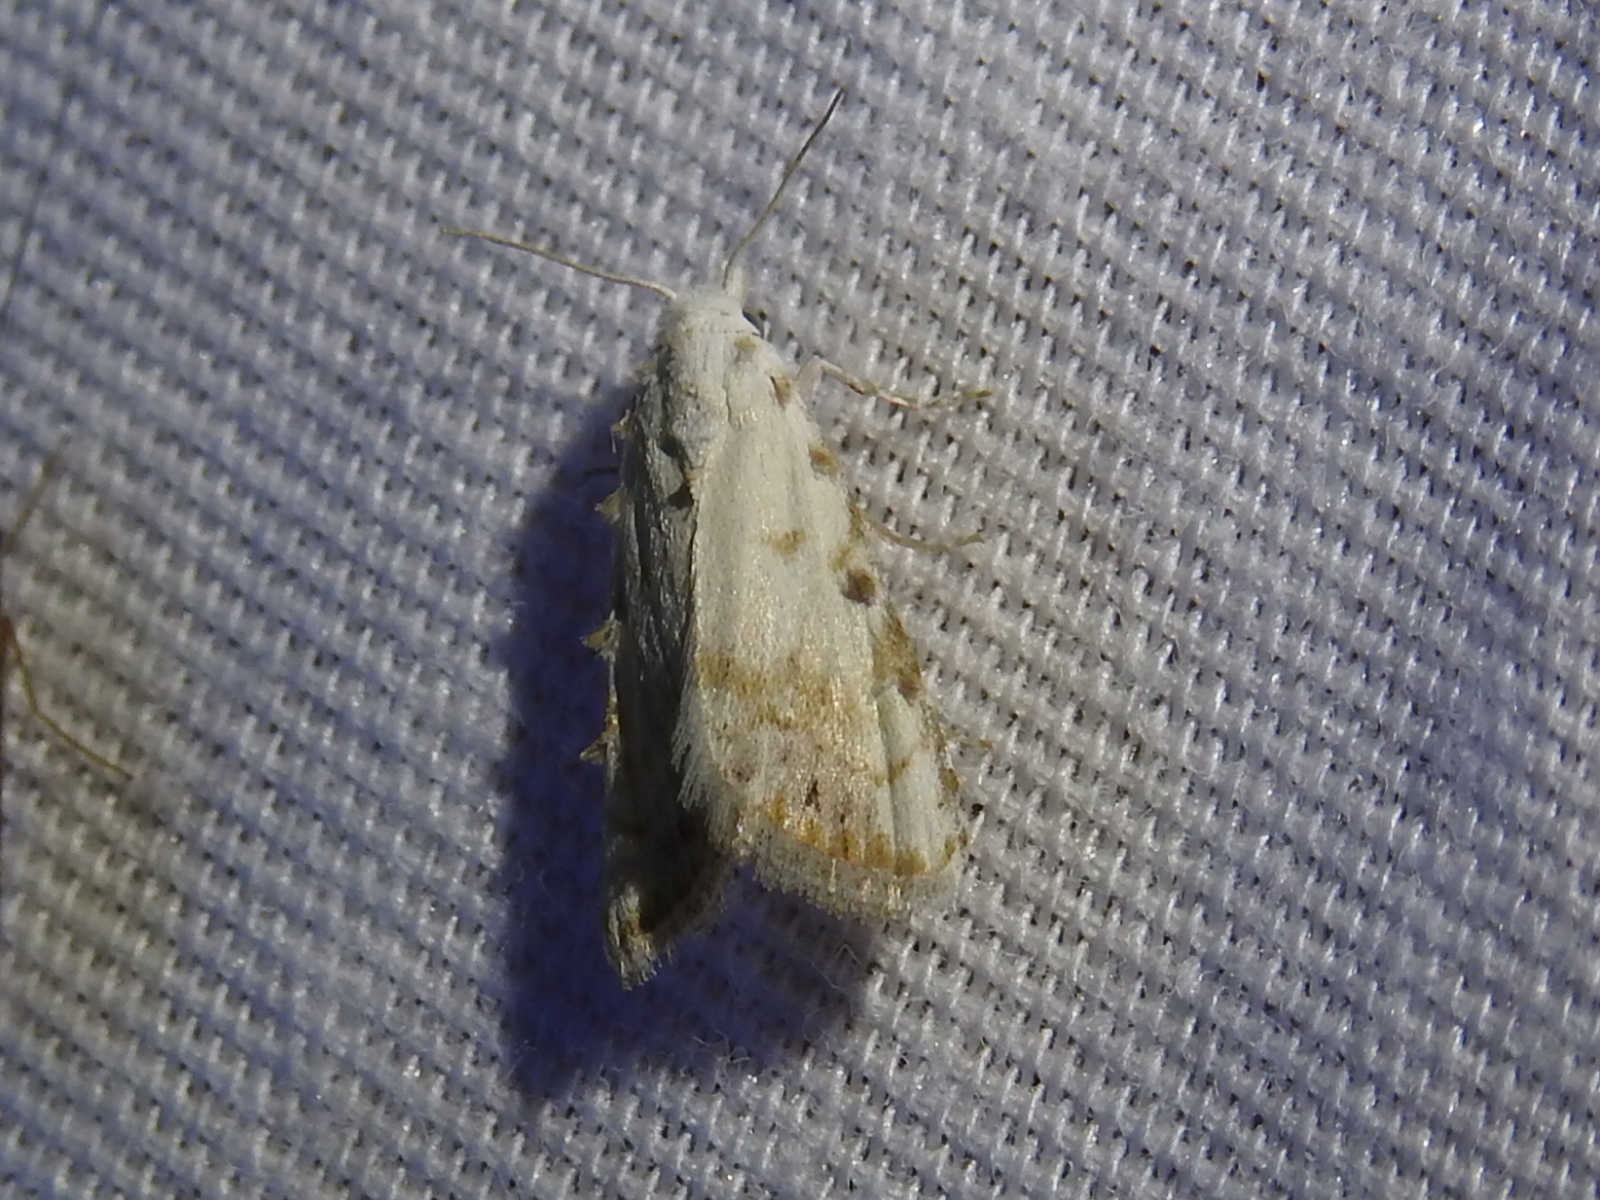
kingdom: Animalia
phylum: Arthropoda
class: Insecta
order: Lepidoptera
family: Nolidae
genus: Nola
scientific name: Nola cereella
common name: Sorghum webworm moth
